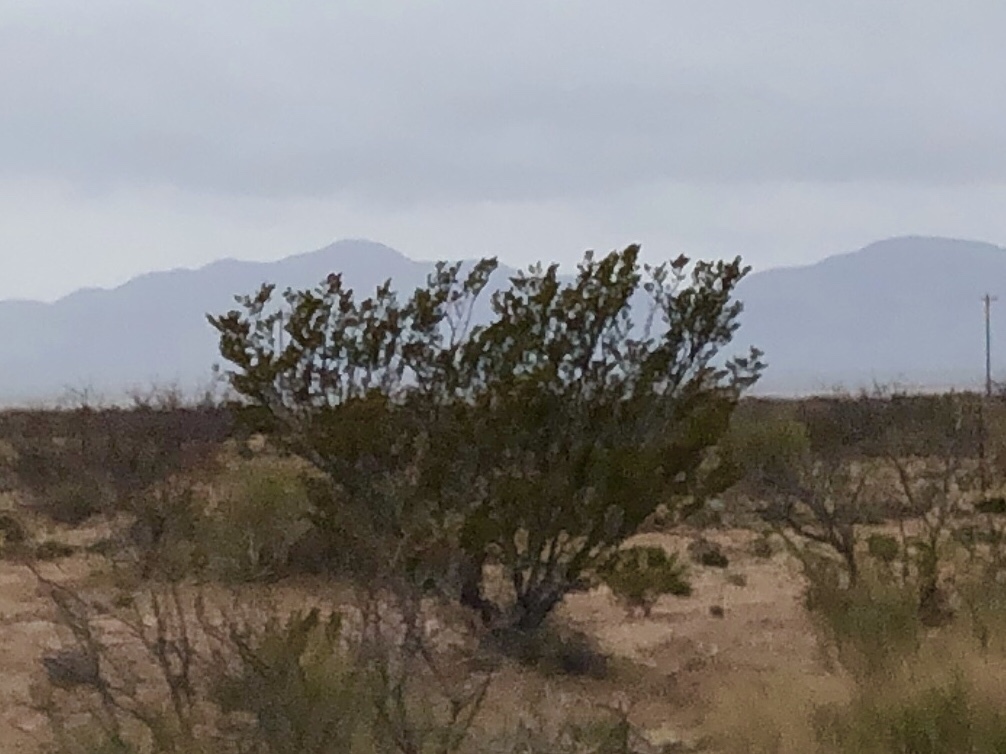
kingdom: Plantae
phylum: Tracheophyta
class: Magnoliopsida
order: Zygophyllales
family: Zygophyllaceae
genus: Larrea
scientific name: Larrea tridentata
